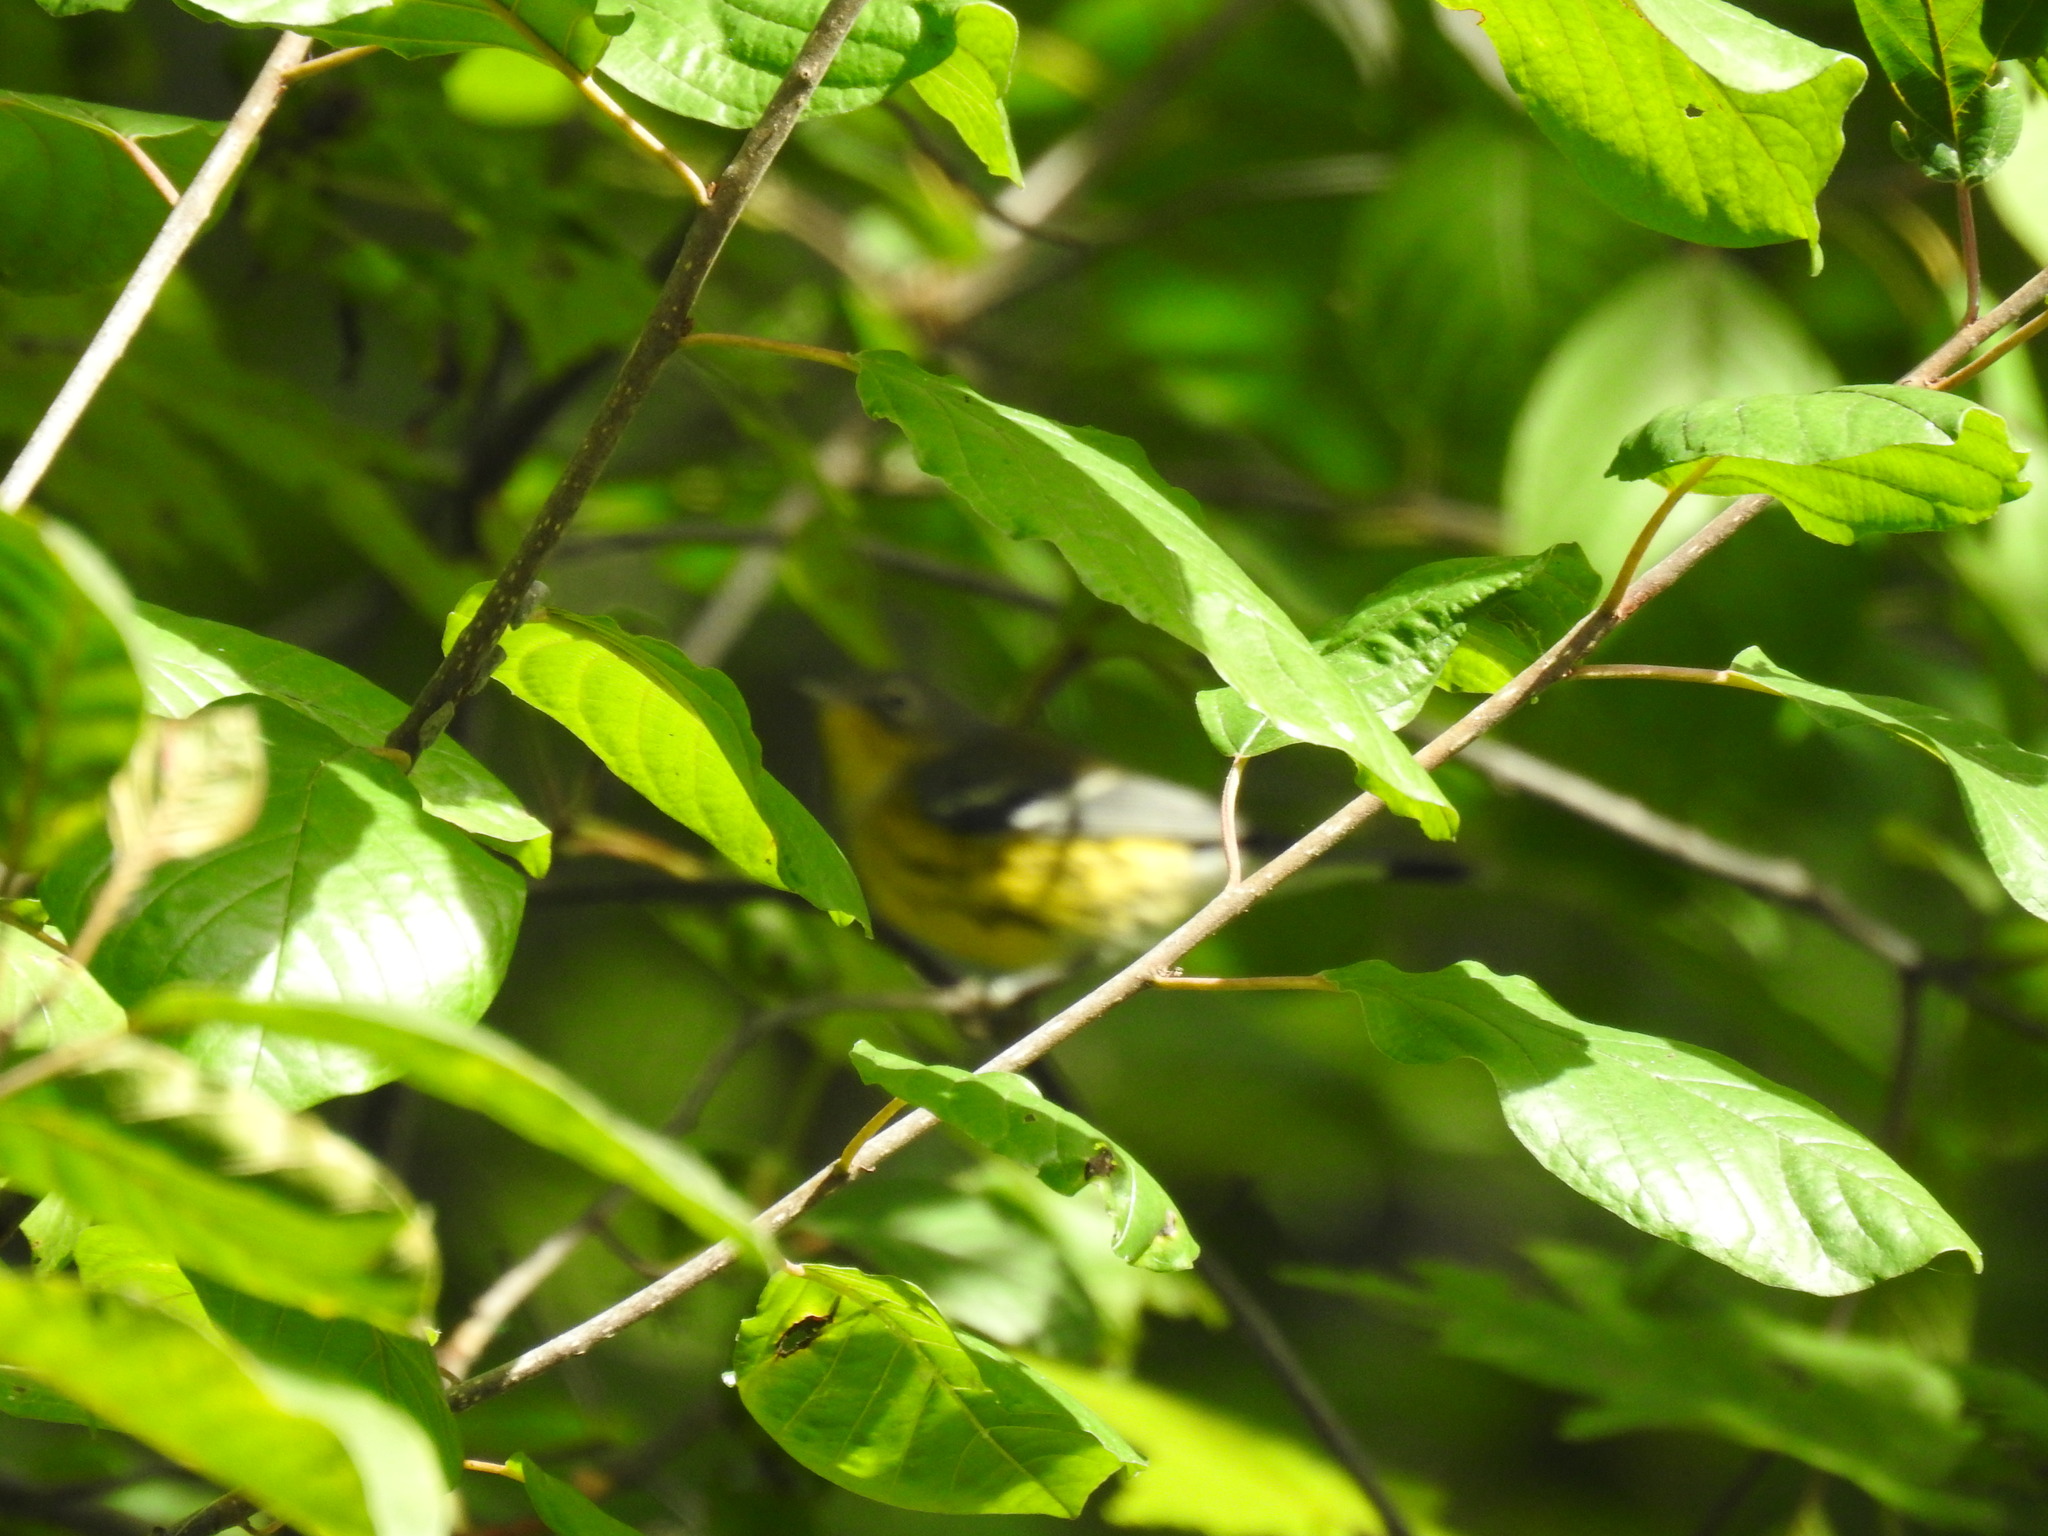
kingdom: Animalia
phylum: Chordata
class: Aves
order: Passeriformes
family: Parulidae
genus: Setophaga
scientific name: Setophaga magnolia
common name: Magnolia warbler
